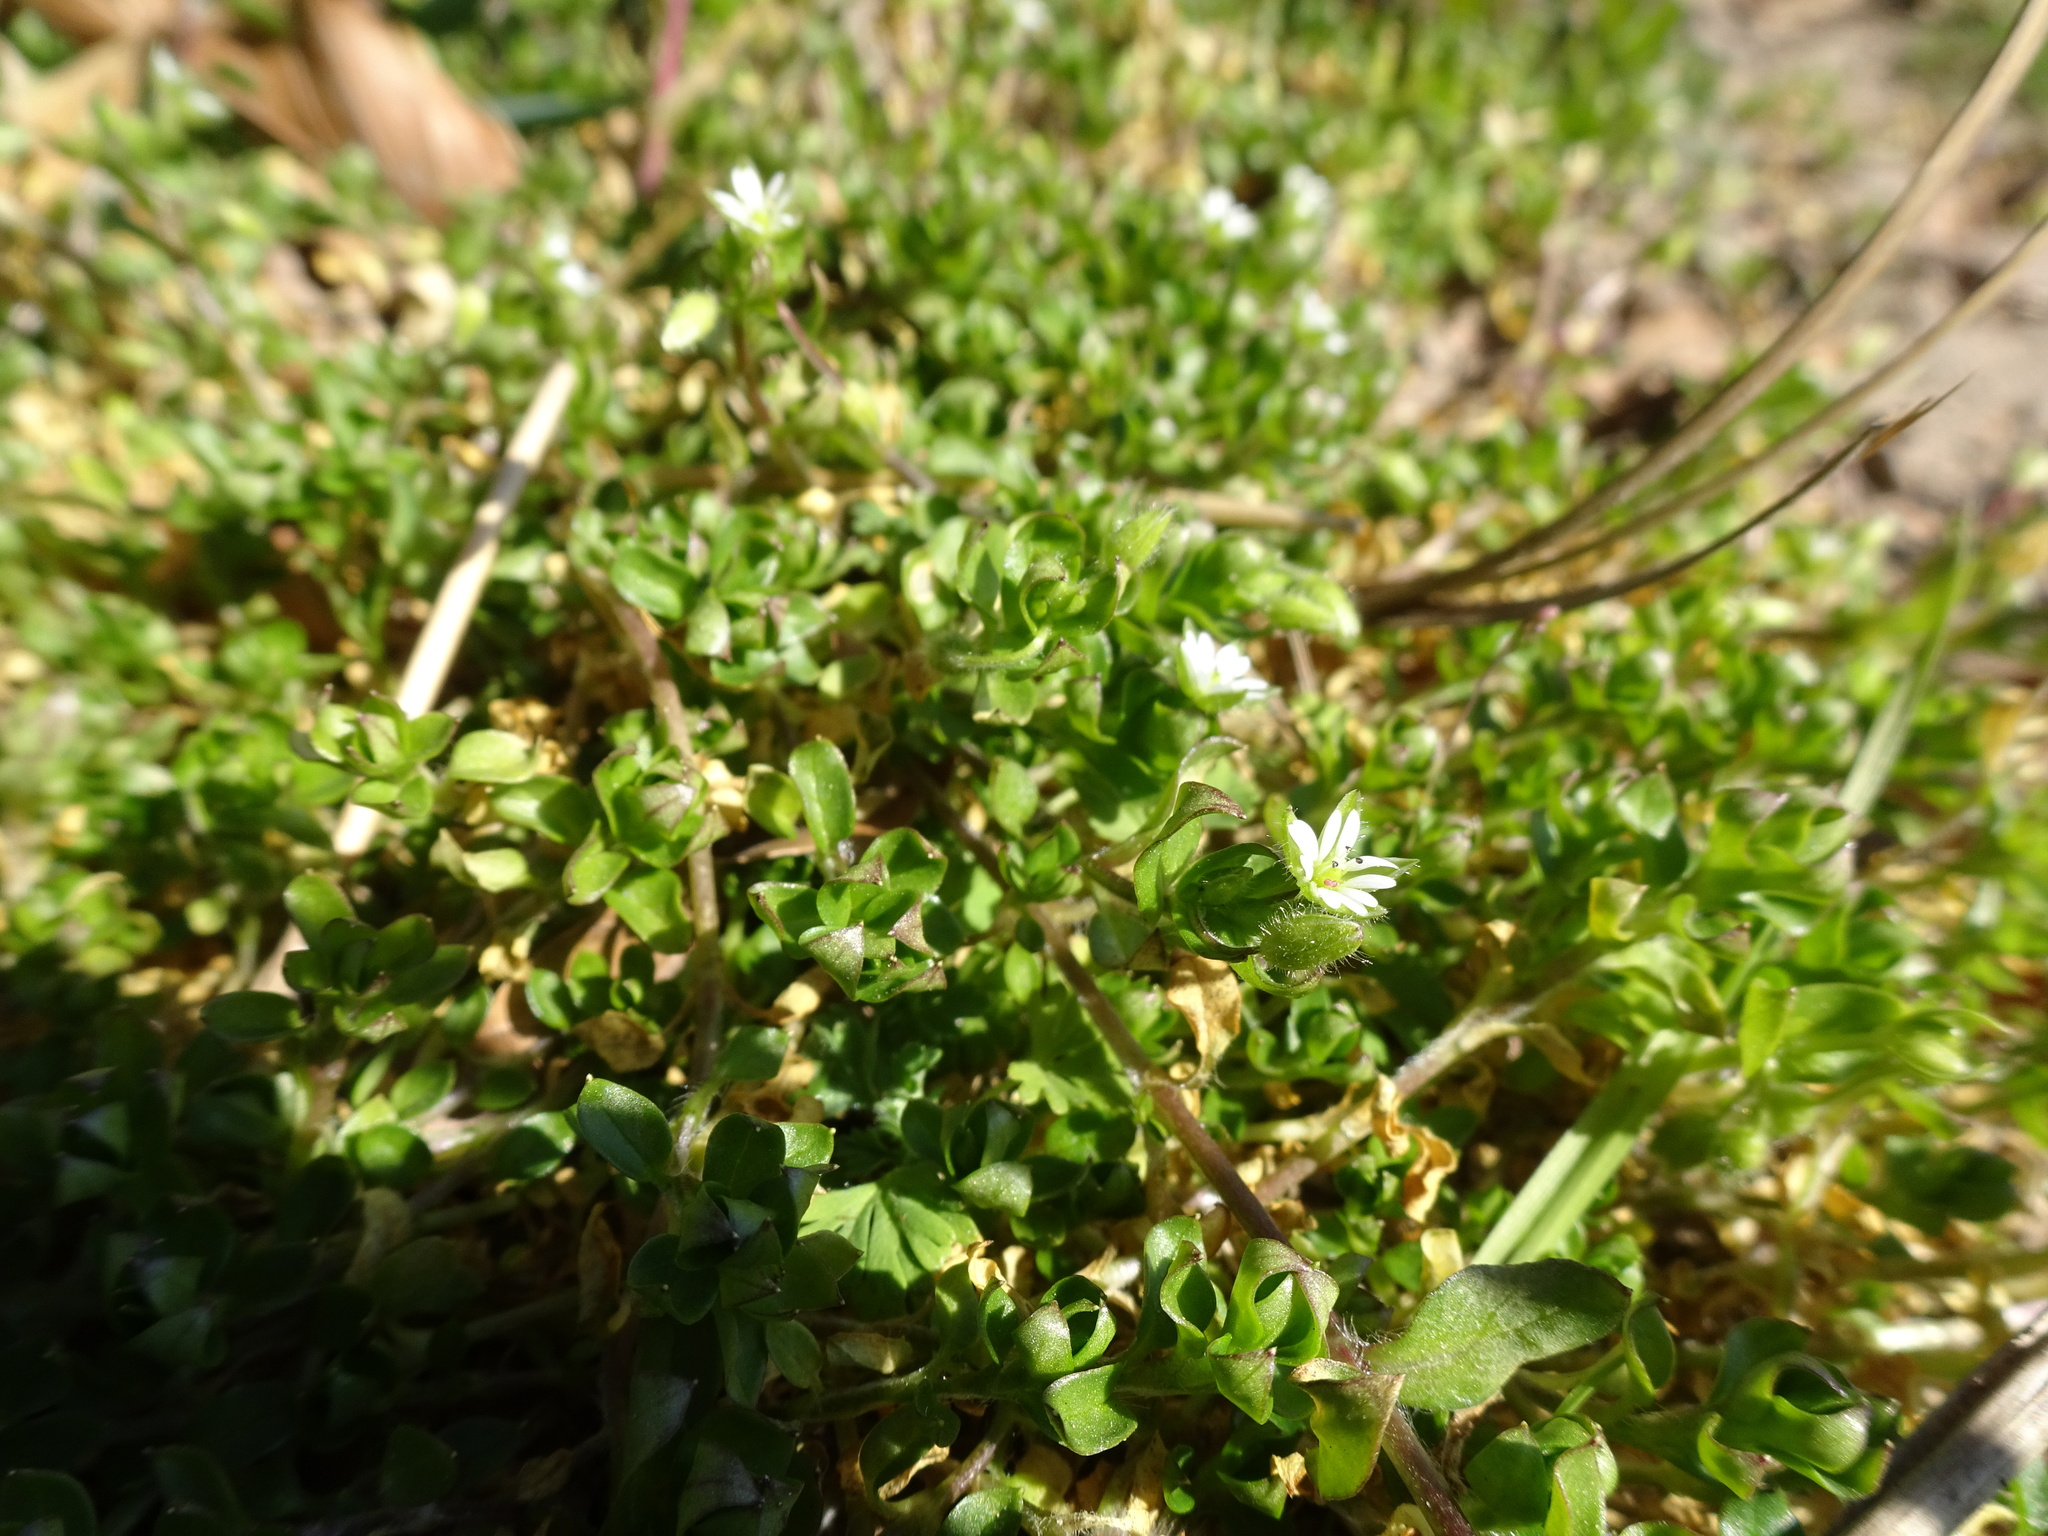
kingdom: Plantae
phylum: Tracheophyta
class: Magnoliopsida
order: Caryophyllales
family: Caryophyllaceae
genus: Stellaria
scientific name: Stellaria media
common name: Common chickweed
